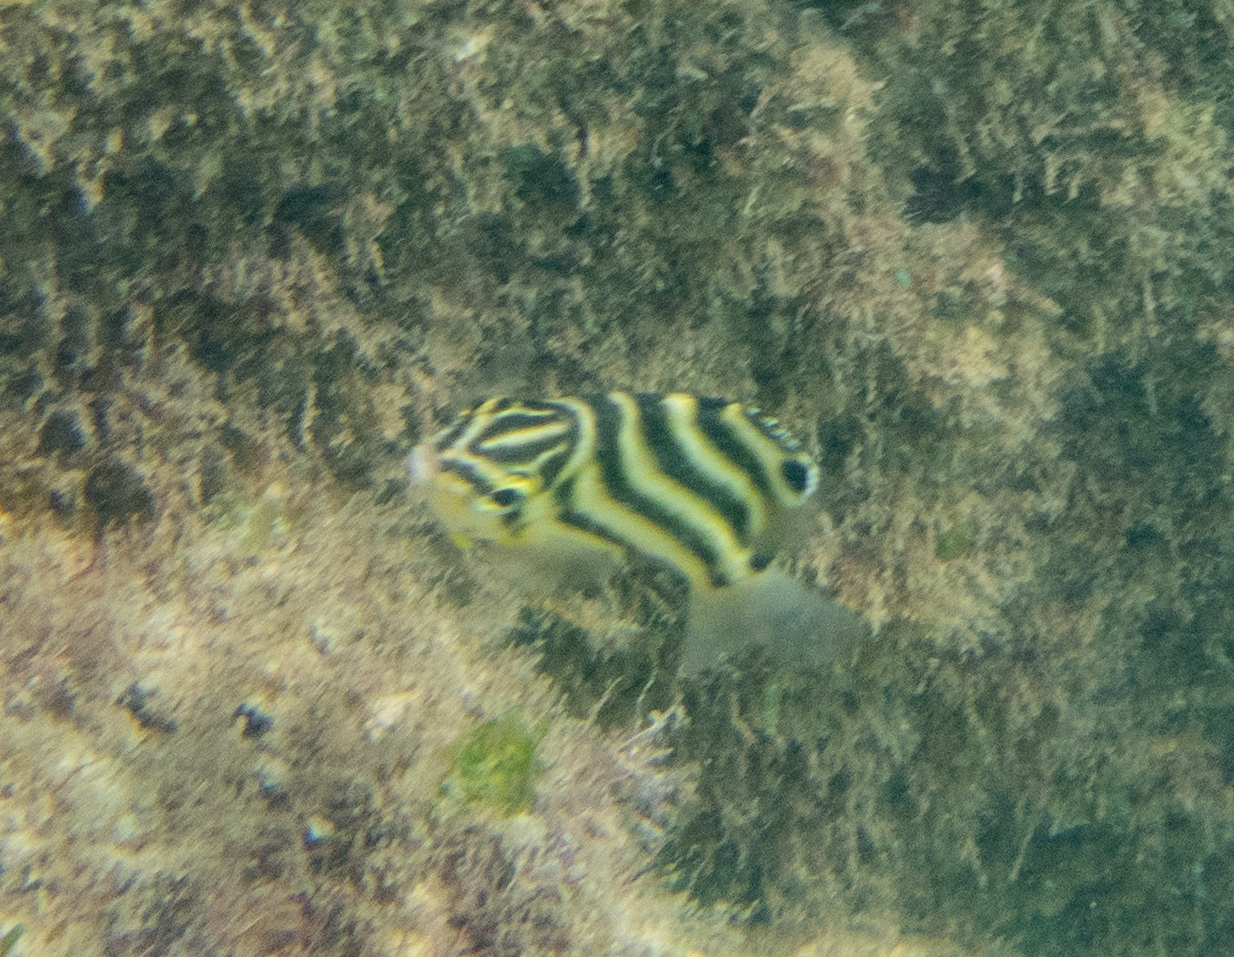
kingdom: Animalia
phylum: Chordata
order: Perciformes
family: Kyphosidae
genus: Microcanthus
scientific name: Microcanthus joyceae
